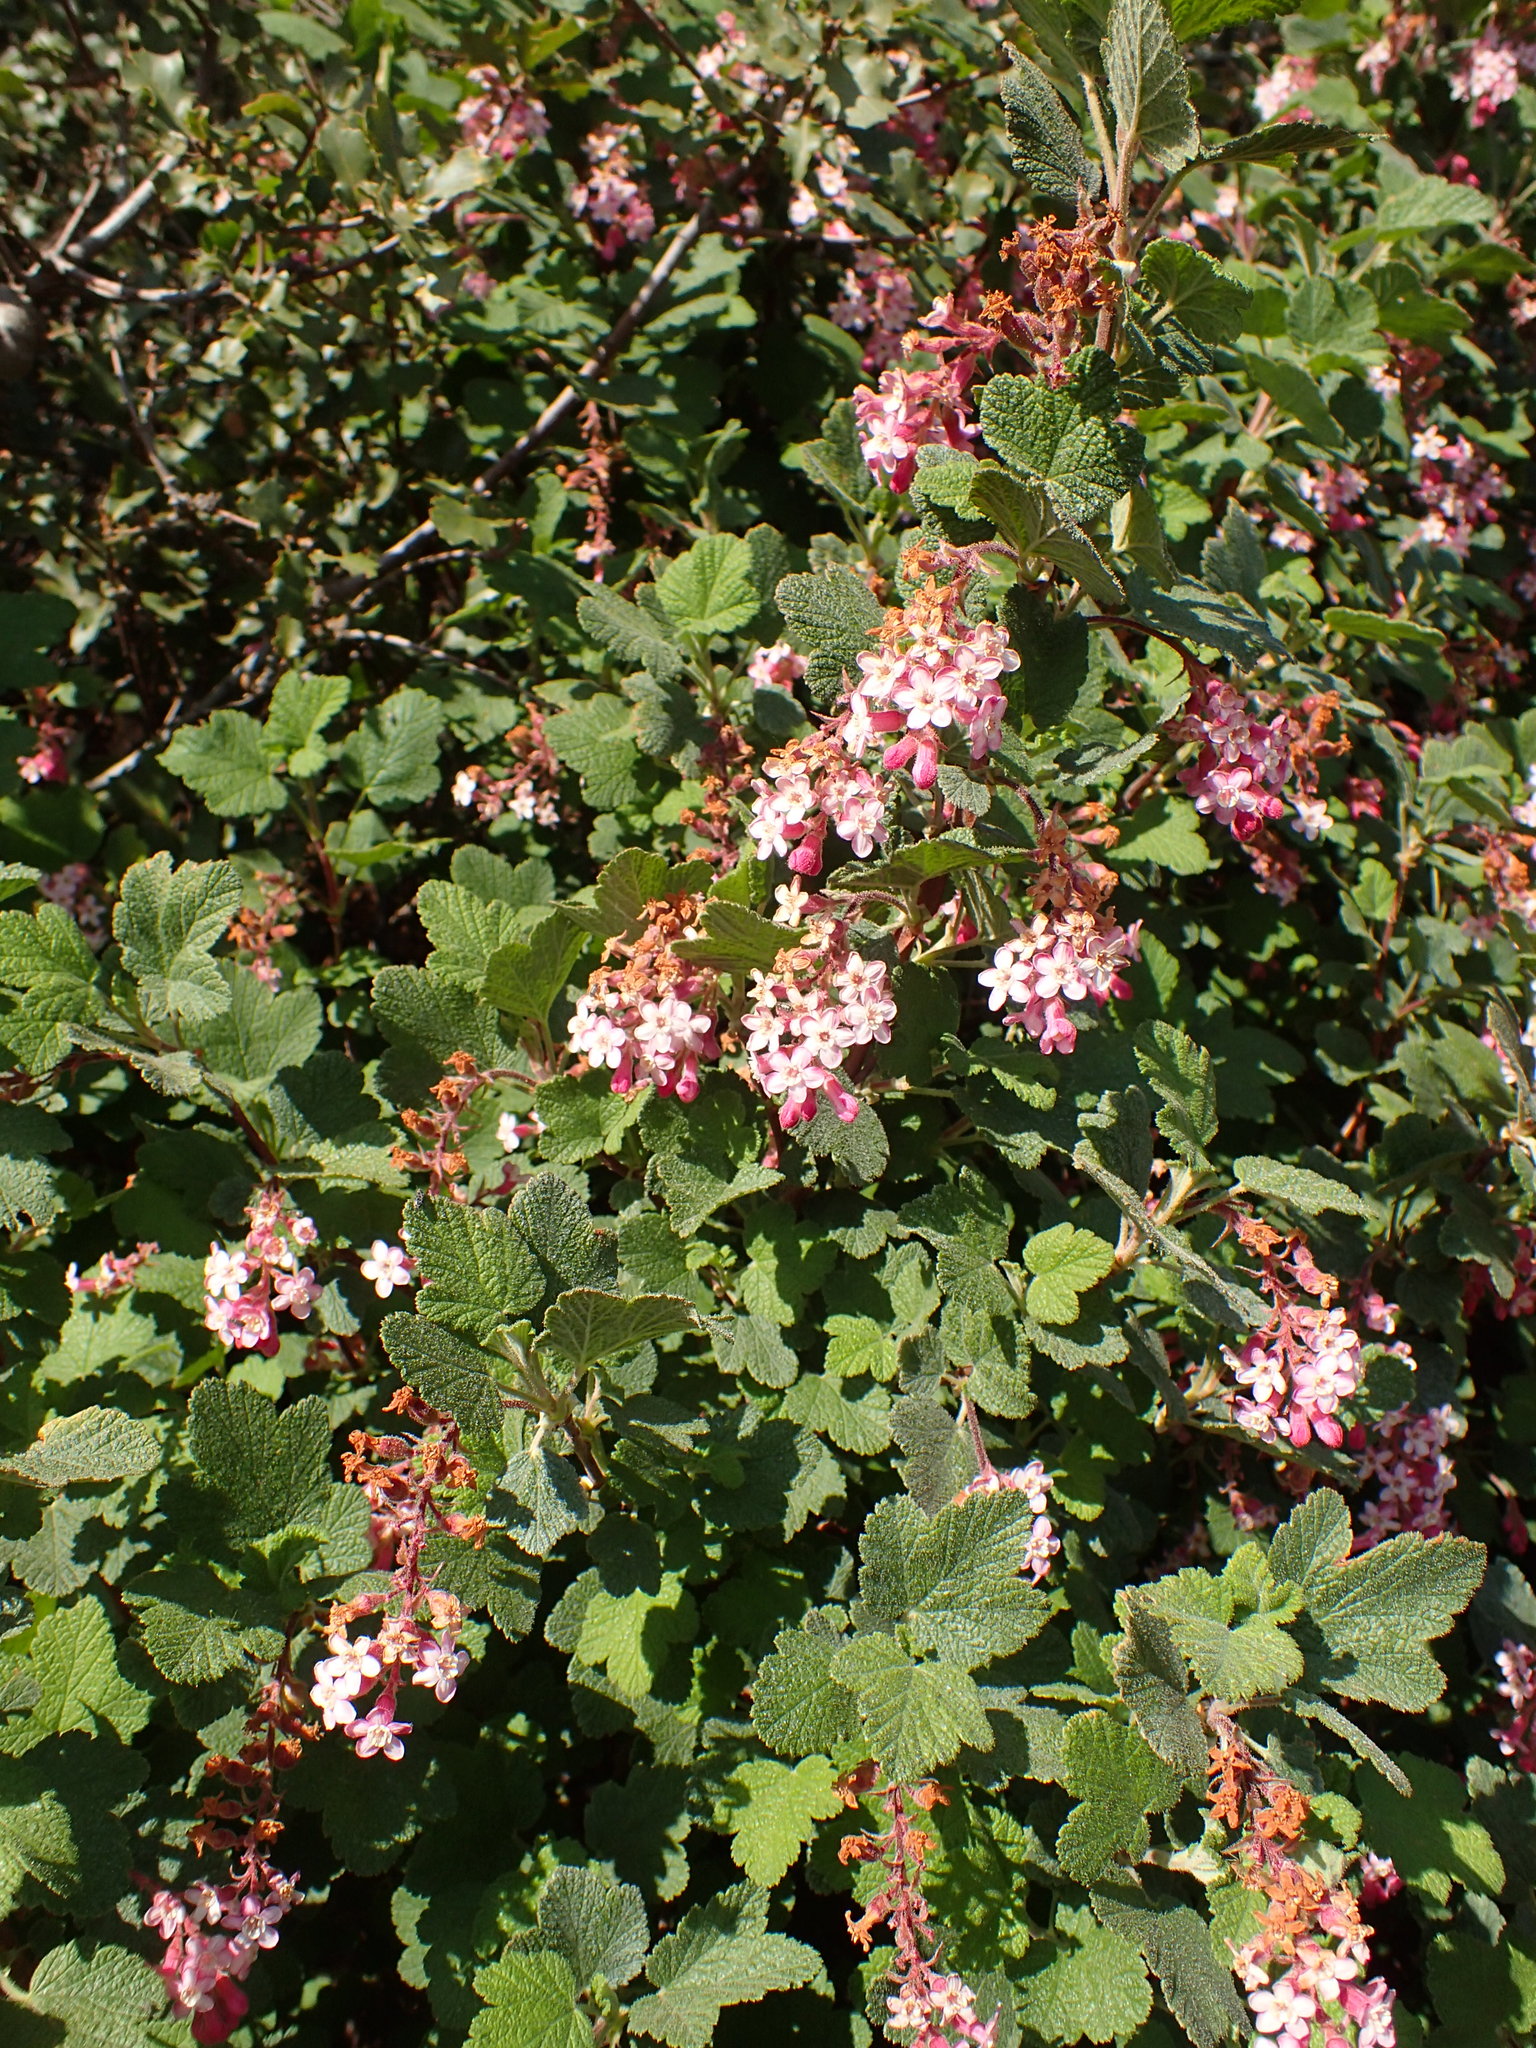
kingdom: Plantae
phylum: Tracheophyta
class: Magnoliopsida
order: Saxifragales
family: Grossulariaceae
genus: Ribes
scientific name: Ribes malvaceum
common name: Chaparral currant
